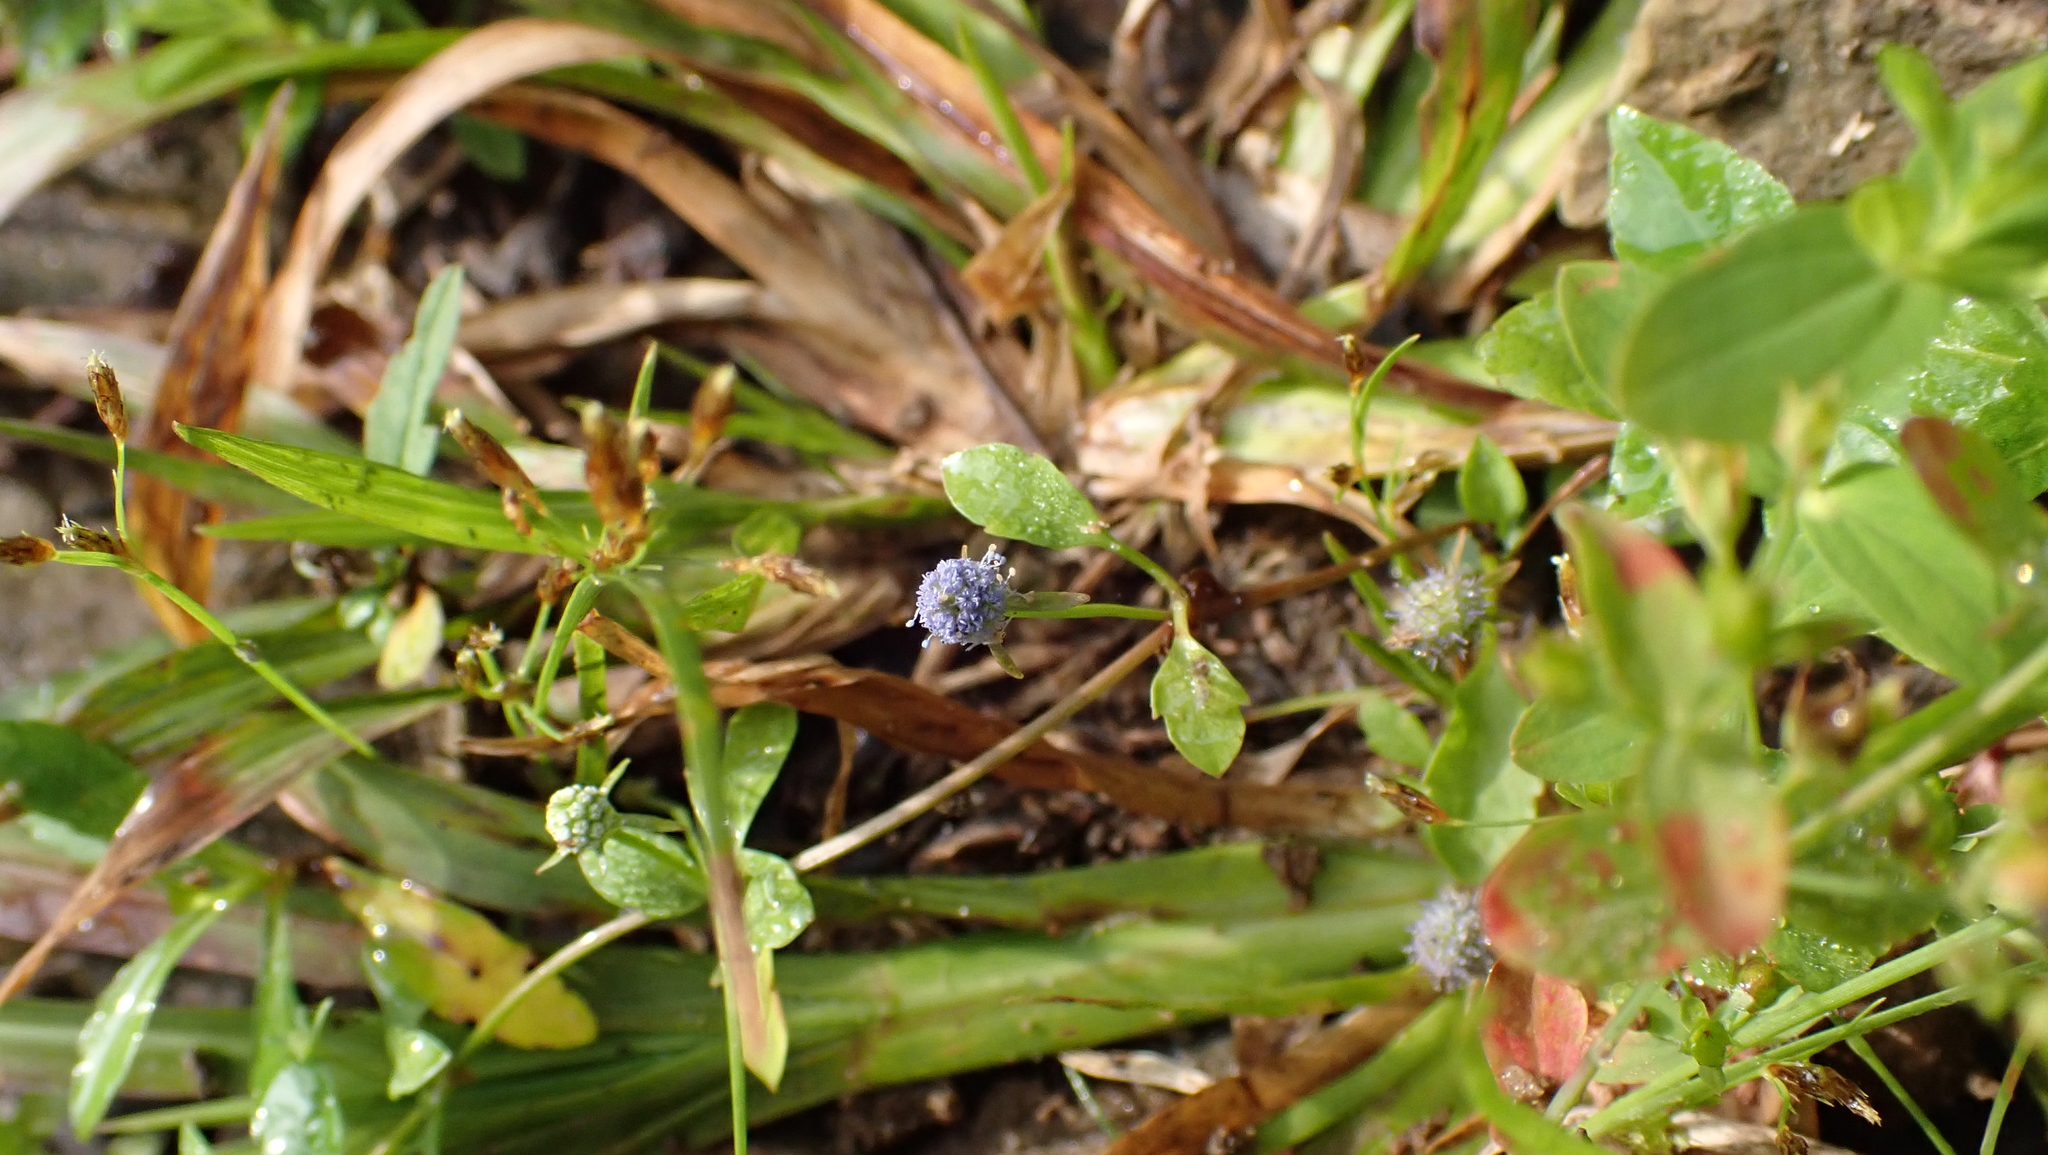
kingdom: Plantae
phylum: Tracheophyta
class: Magnoliopsida
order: Apiales
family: Apiaceae
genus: Eryngium
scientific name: Eryngium prostratum
